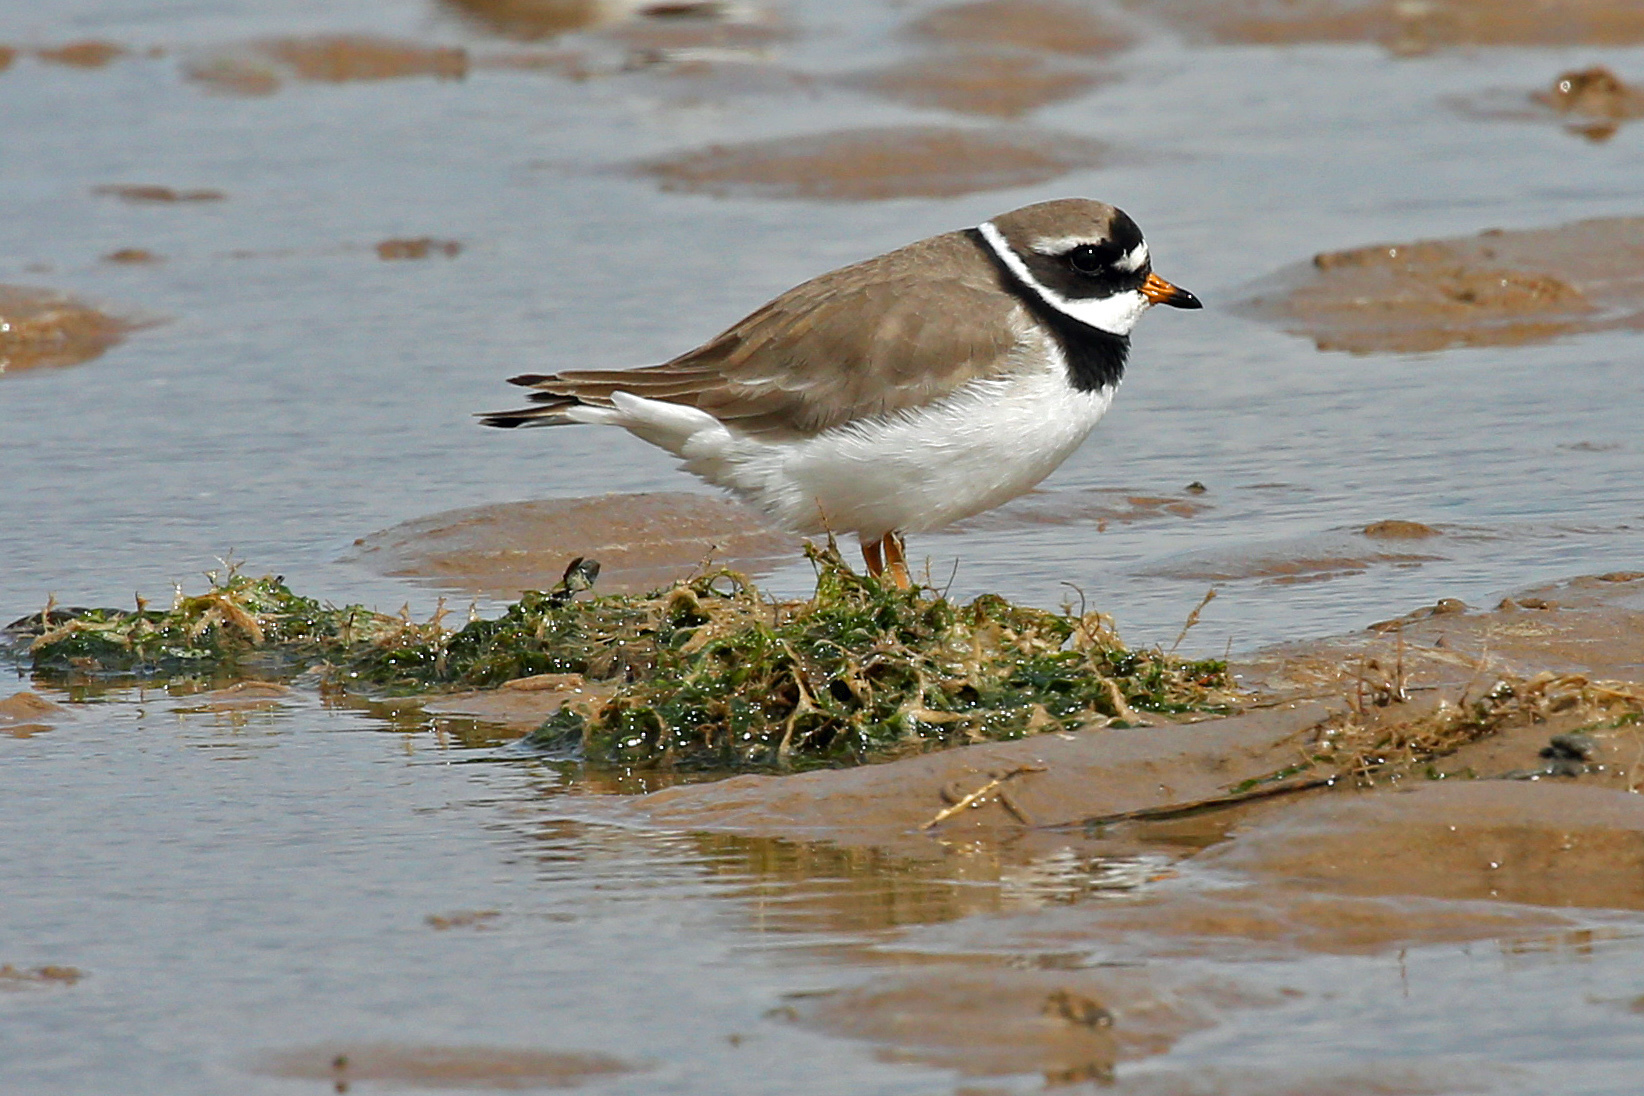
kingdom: Animalia
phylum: Chordata
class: Aves
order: Charadriiformes
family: Charadriidae
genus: Charadrius
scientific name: Charadrius hiaticula
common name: Common ringed plover
